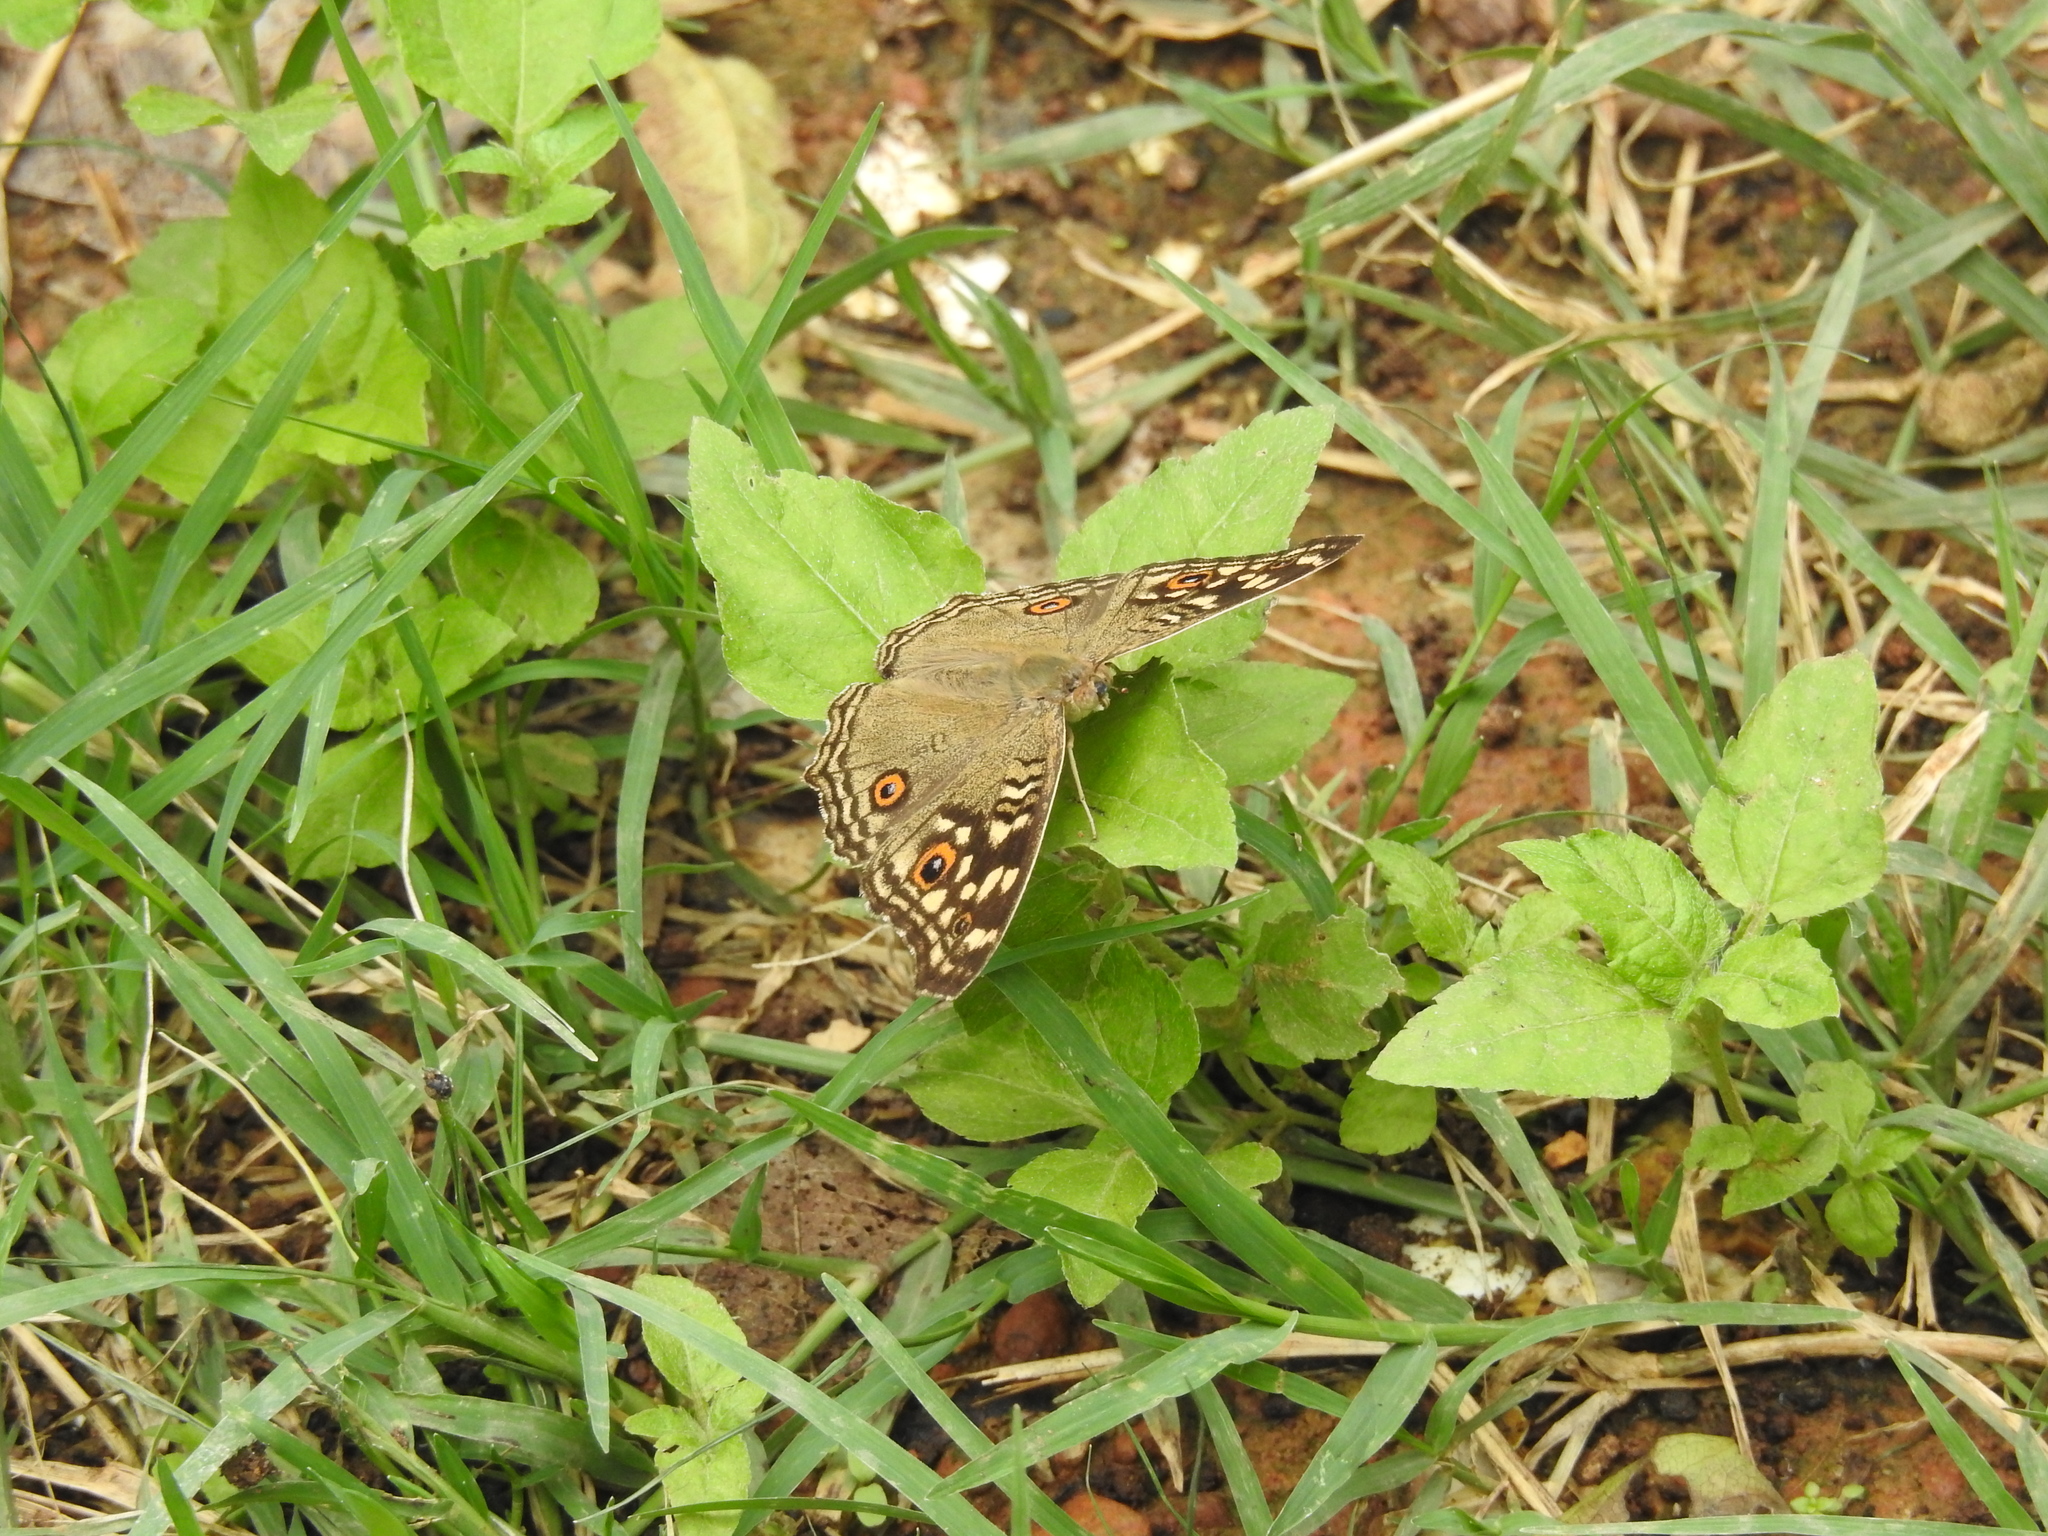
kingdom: Animalia
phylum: Arthropoda
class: Insecta
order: Lepidoptera
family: Nymphalidae
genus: Junonia
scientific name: Junonia lemonias
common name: Lemon pansy
